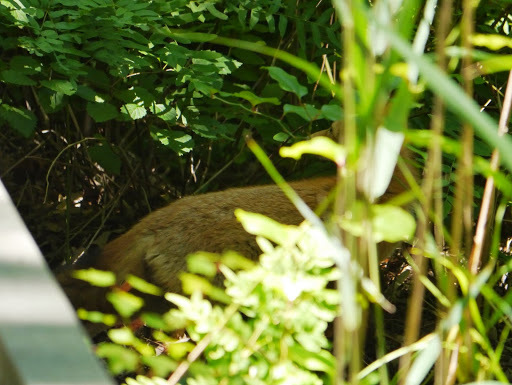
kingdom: Animalia
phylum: Chordata
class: Mammalia
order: Carnivora
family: Canidae
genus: Vulpes
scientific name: Vulpes vulpes
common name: Red fox
